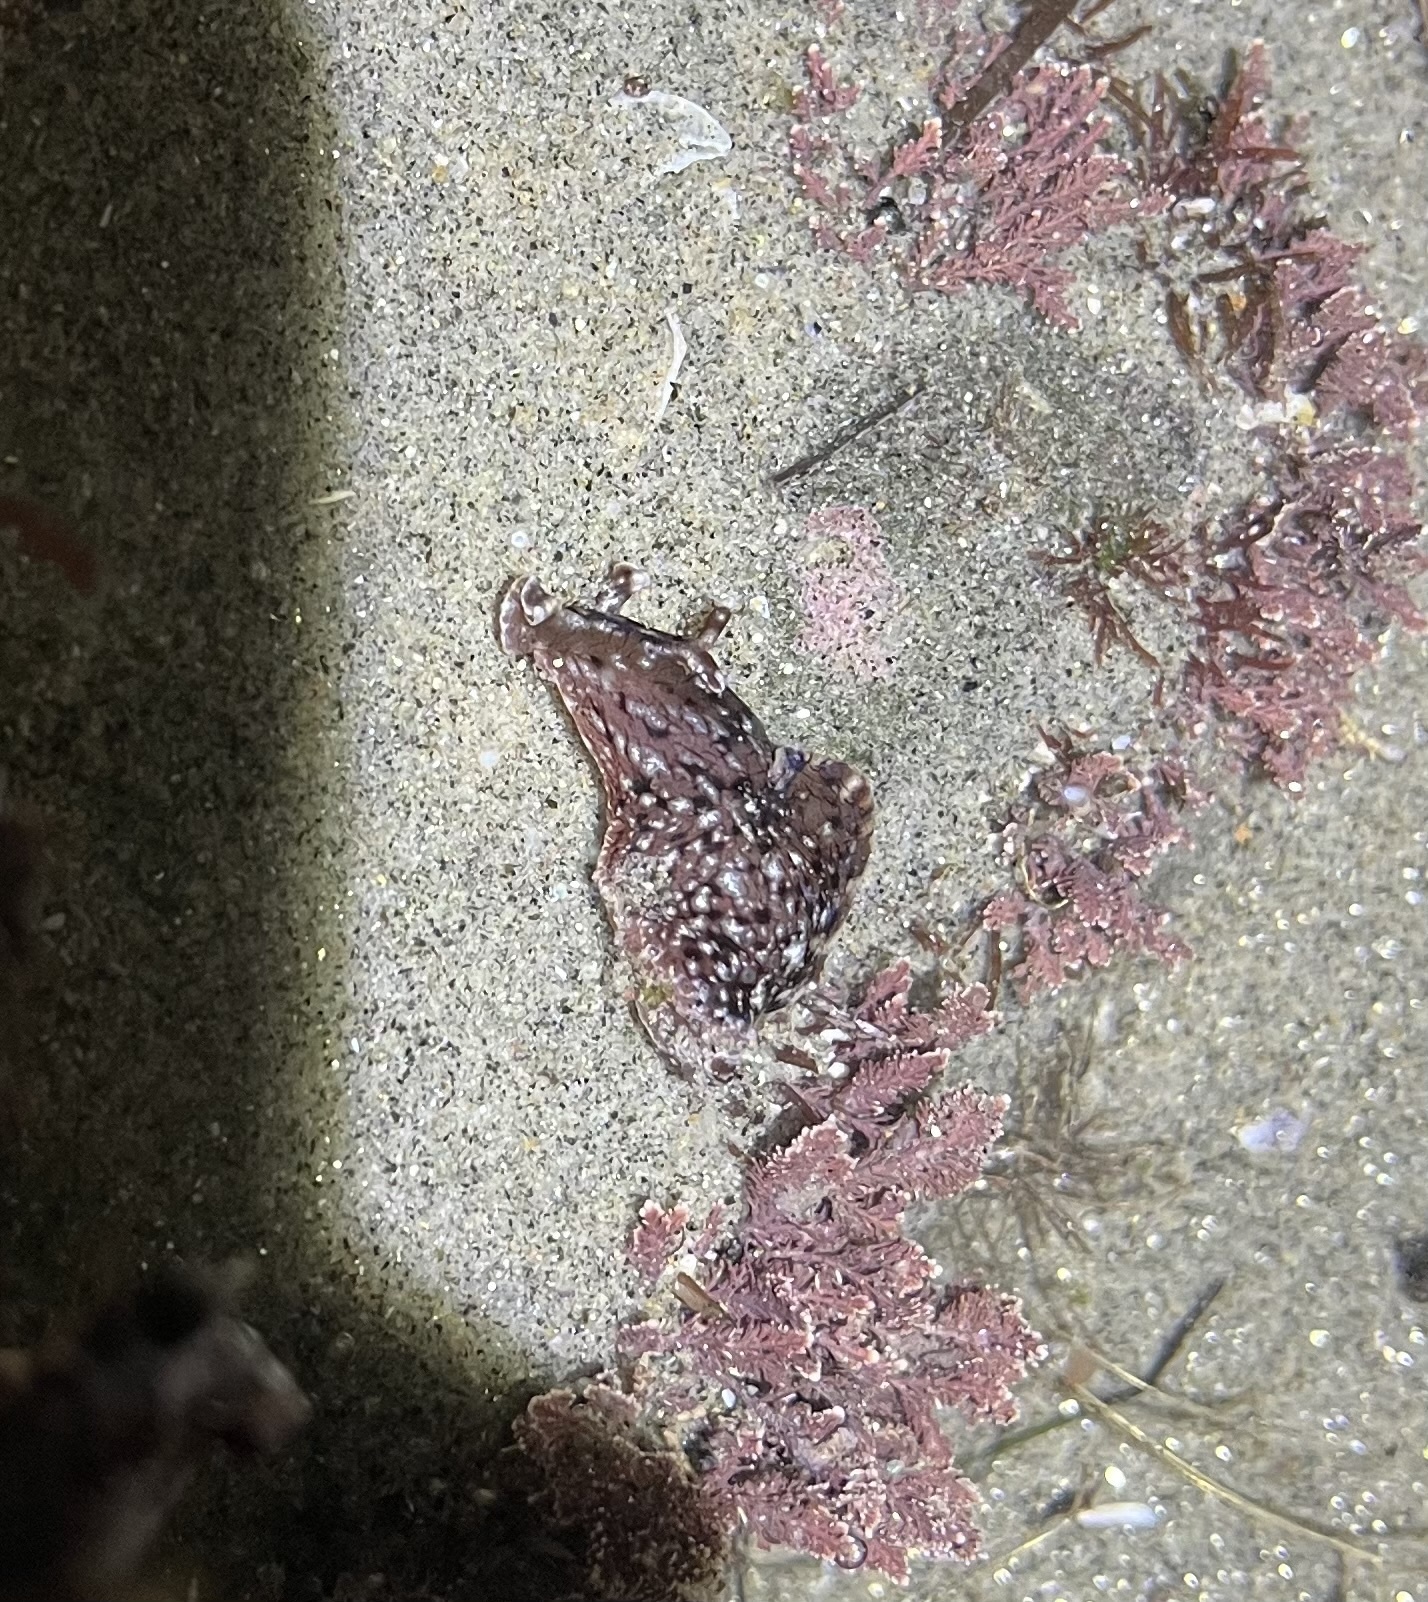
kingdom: Animalia
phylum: Mollusca
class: Gastropoda
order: Aplysiida
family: Aplysiidae
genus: Aplysia
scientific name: Aplysia californica
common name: California seahare
